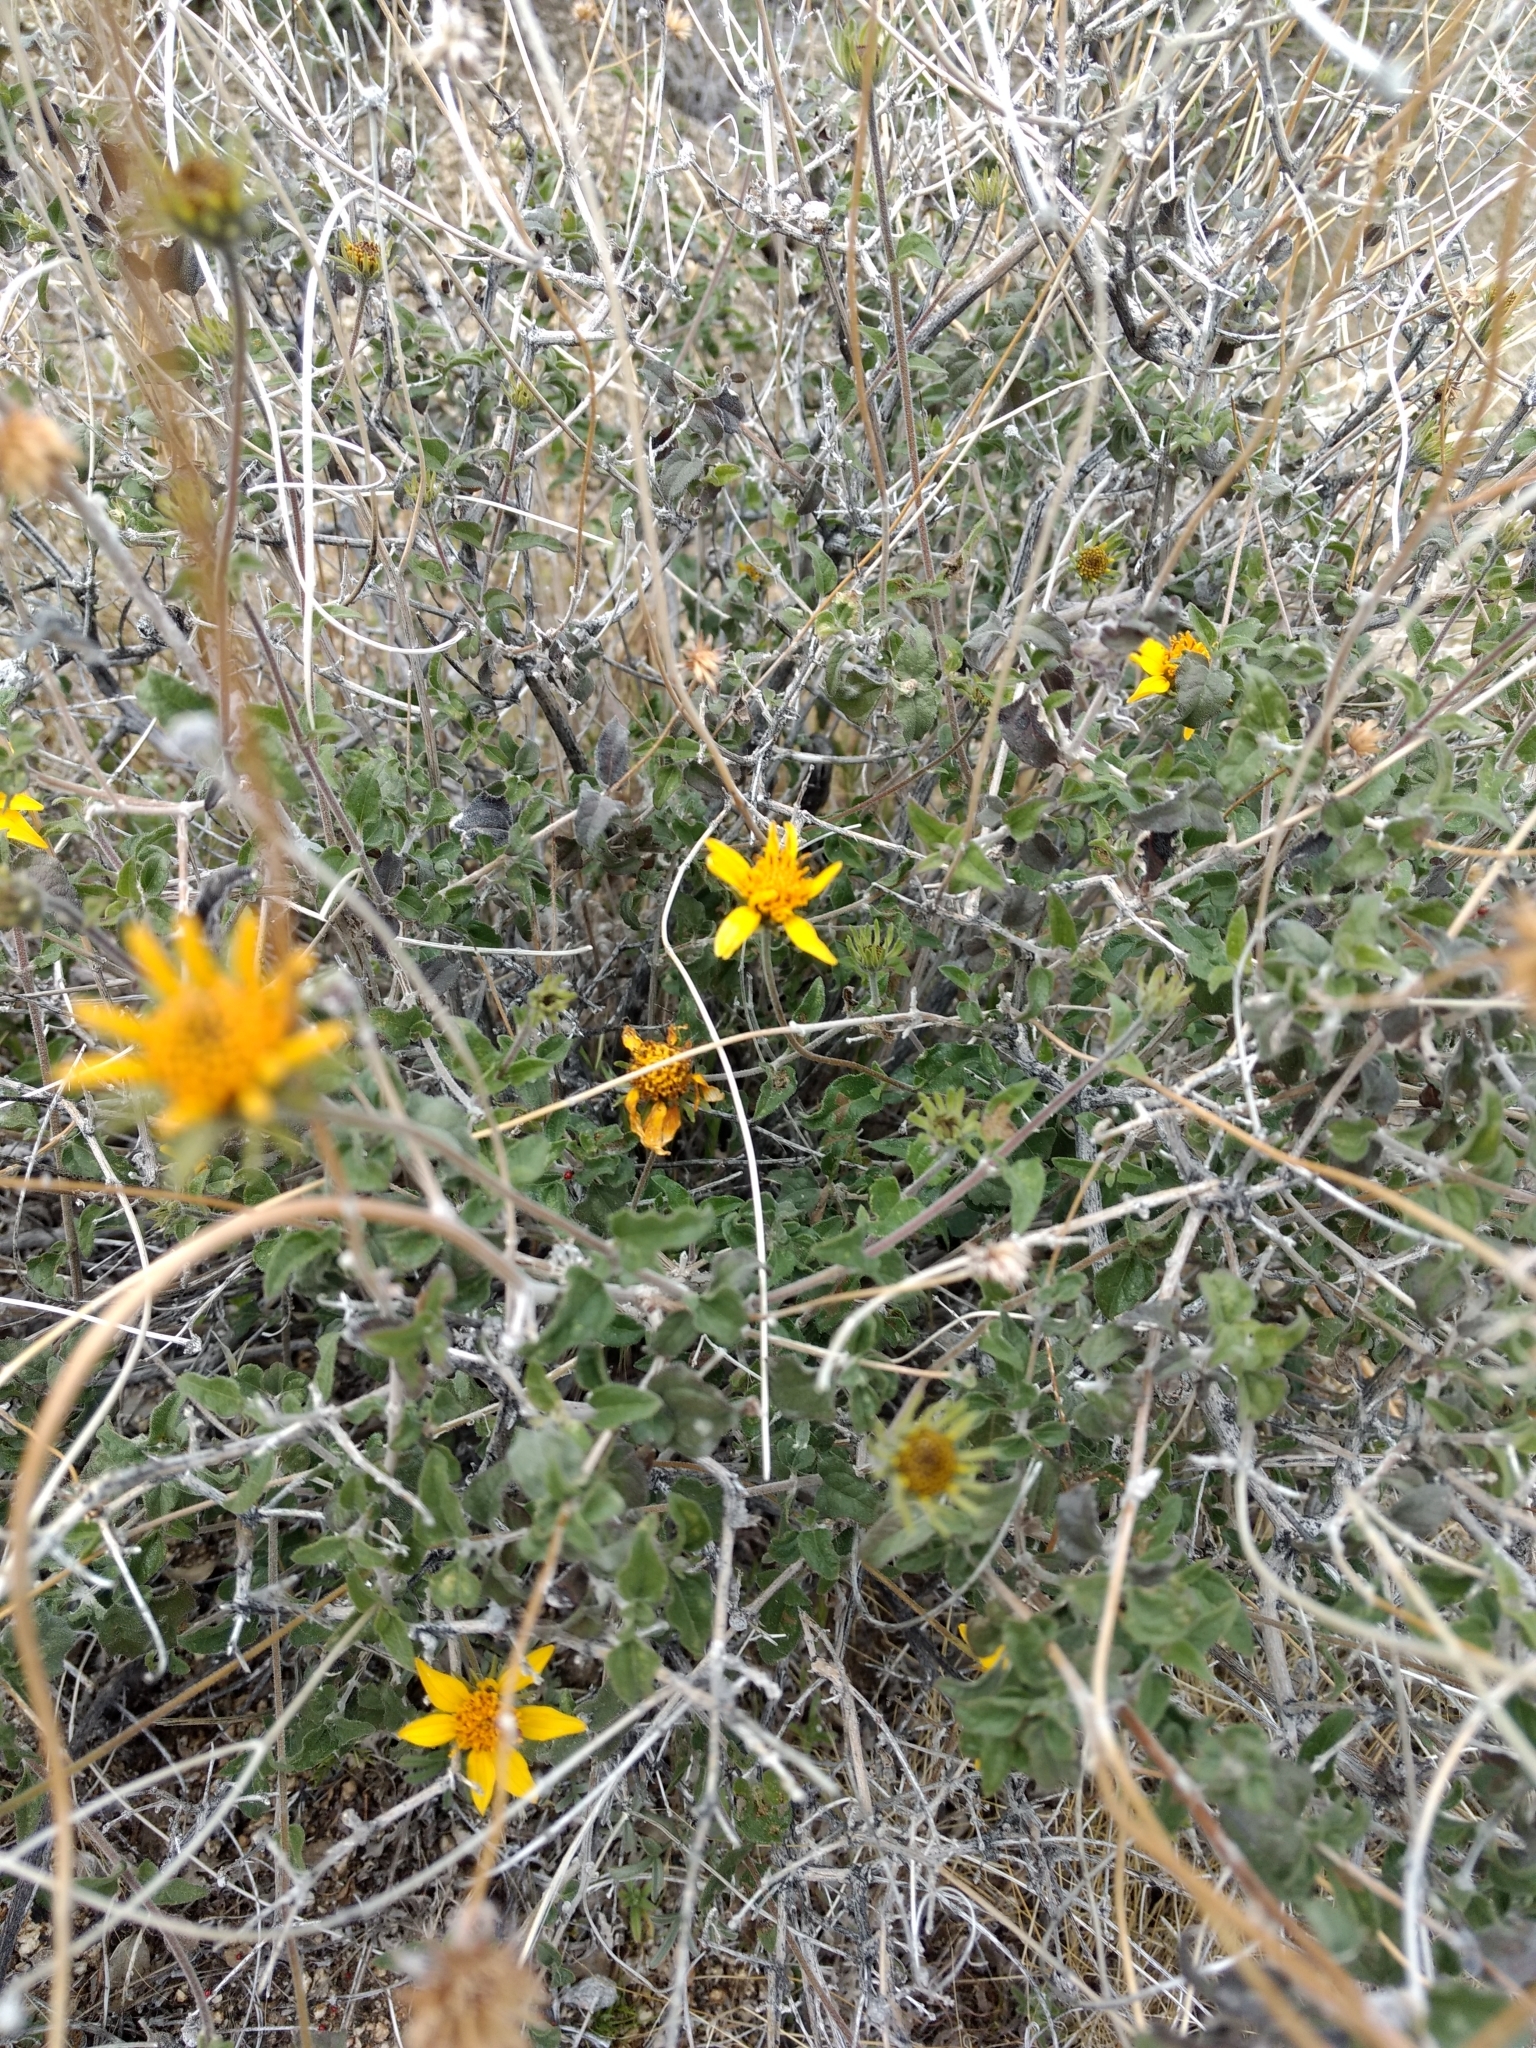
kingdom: Plantae
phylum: Tracheophyta
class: Magnoliopsida
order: Asterales
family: Asteraceae
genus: Bahiopsis
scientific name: Bahiopsis parishii
